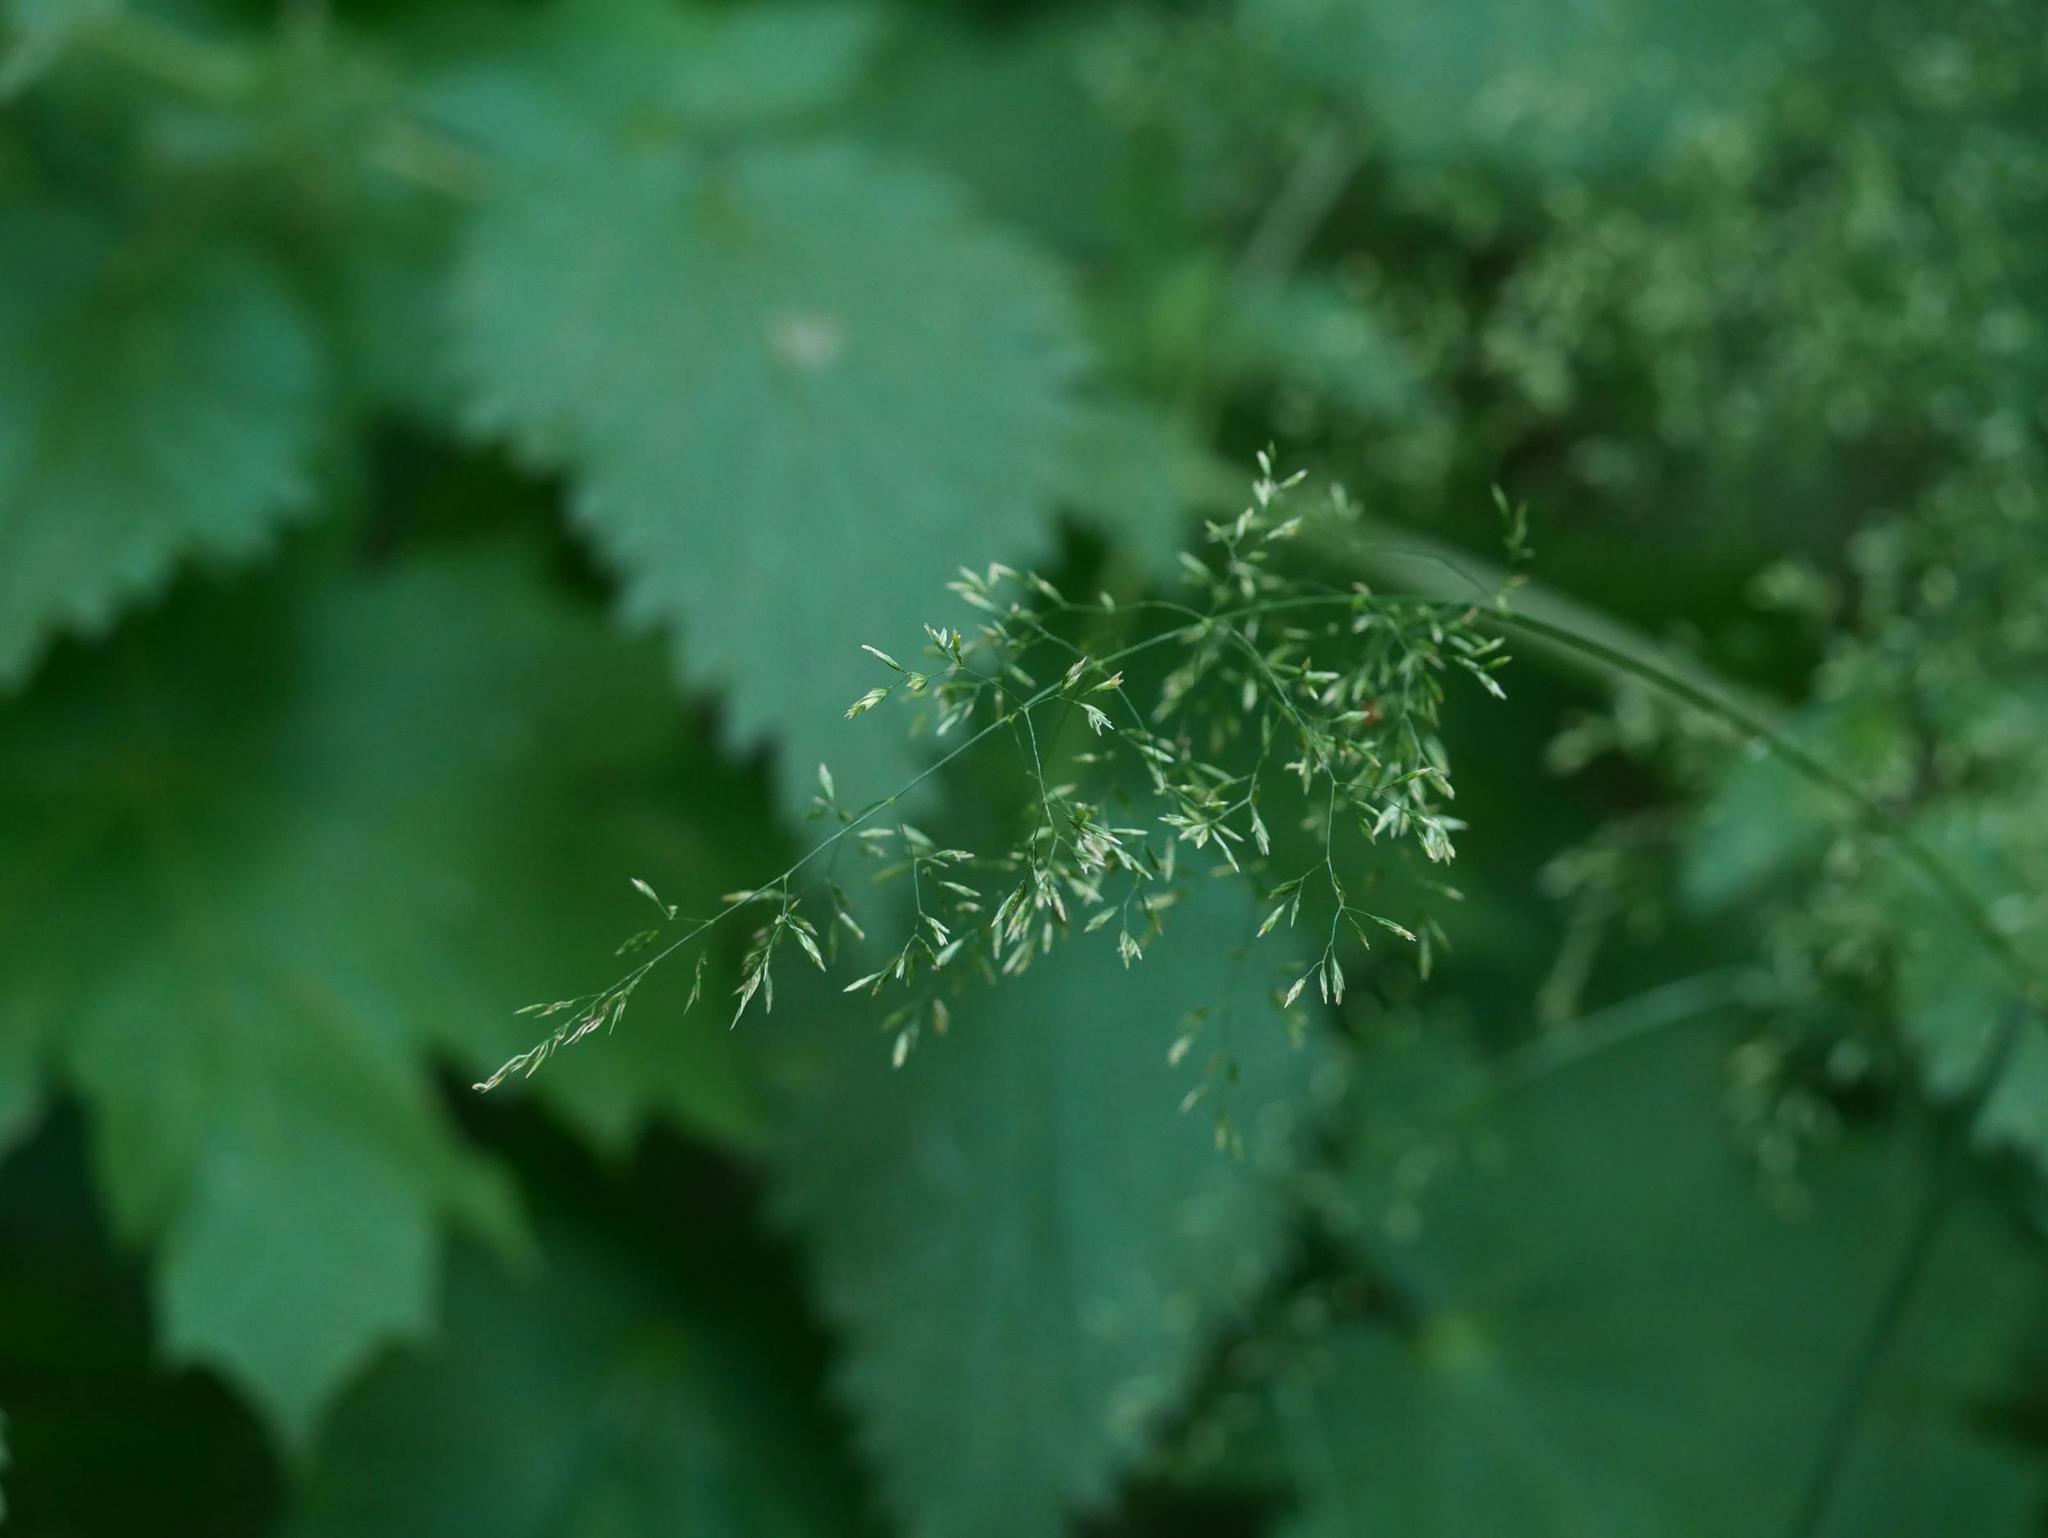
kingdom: Plantae
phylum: Tracheophyta
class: Liliopsida
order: Poales
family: Poaceae
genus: Poa
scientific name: Poa nemoralis
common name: Wood bluegrass
